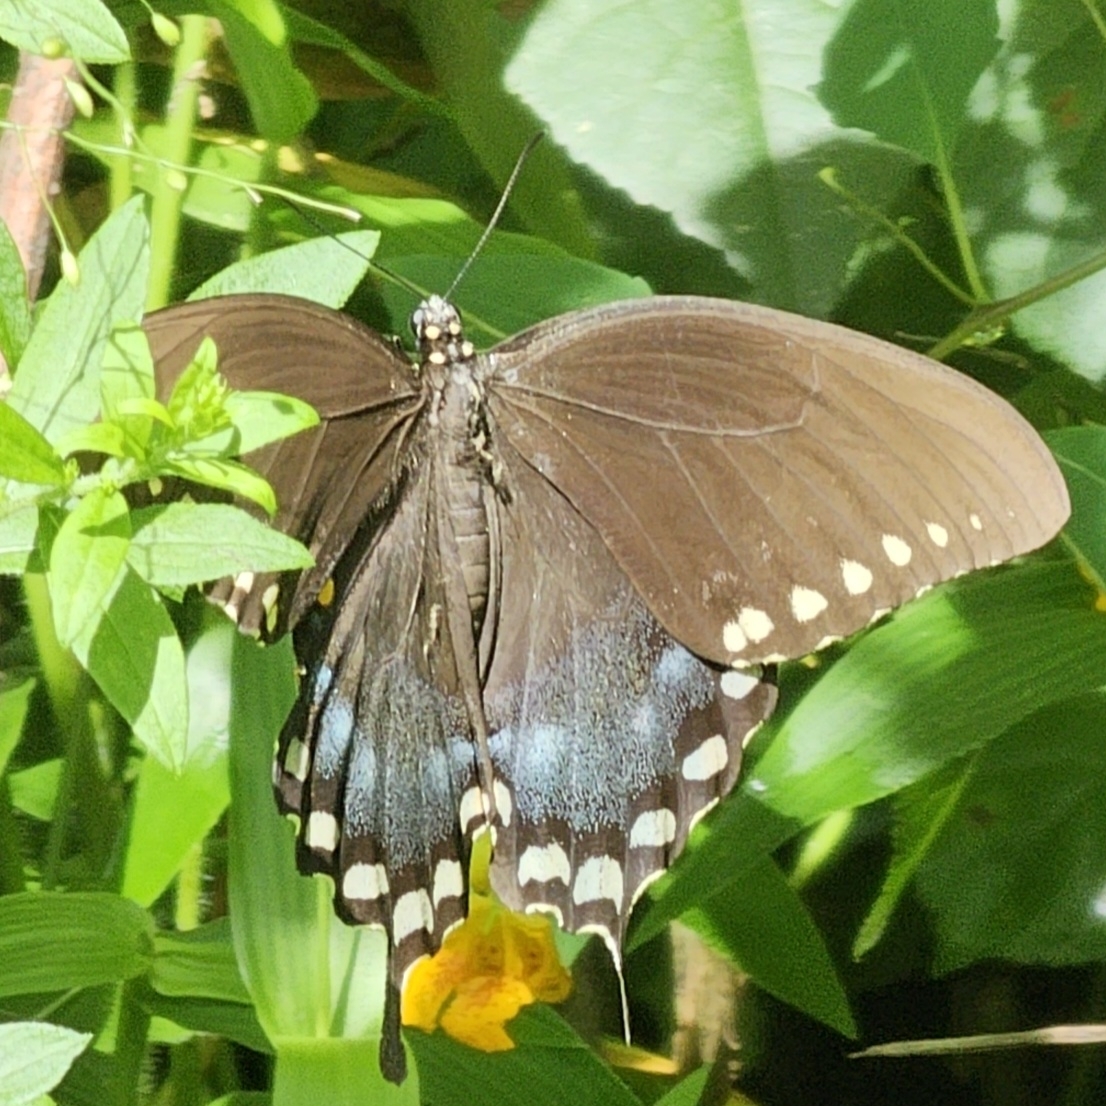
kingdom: Animalia
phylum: Arthropoda
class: Insecta
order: Lepidoptera
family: Papilionidae
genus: Papilio
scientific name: Papilio troilus
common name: Spicebush swallowtail
